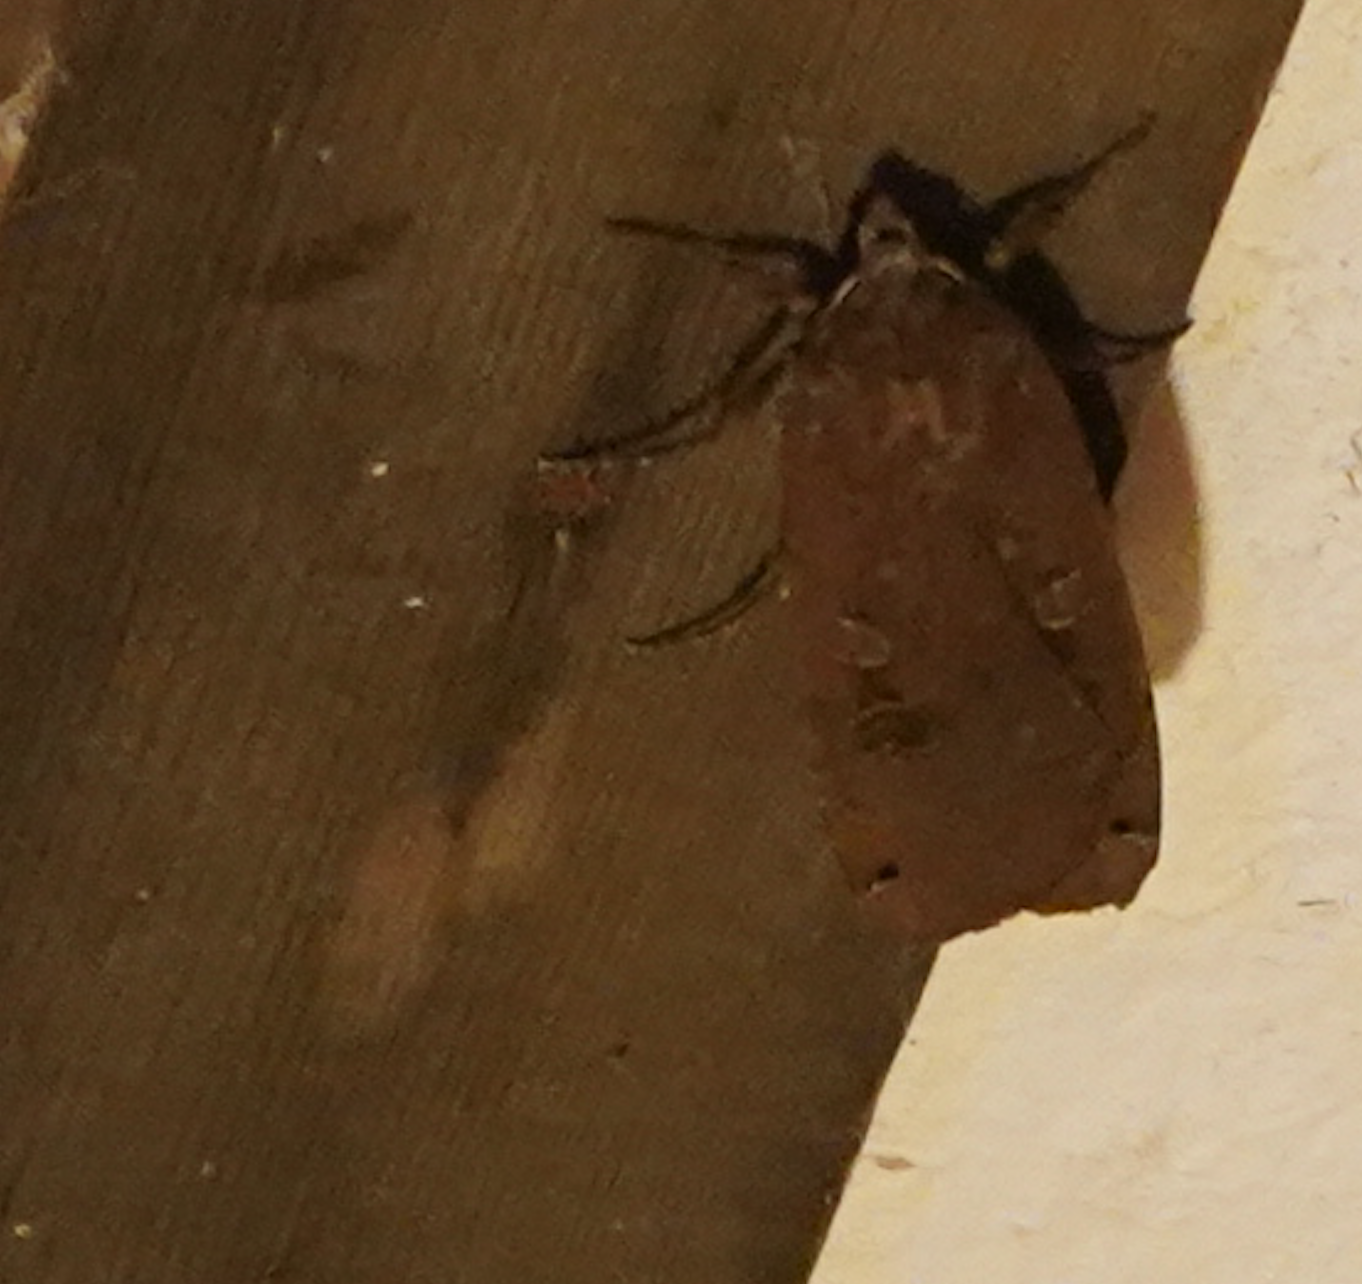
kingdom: Animalia
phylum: Arthropoda
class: Insecta
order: Lepidoptera
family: Noctuidae
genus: Noctua
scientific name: Noctua pronuba
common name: Large yellow underwing
